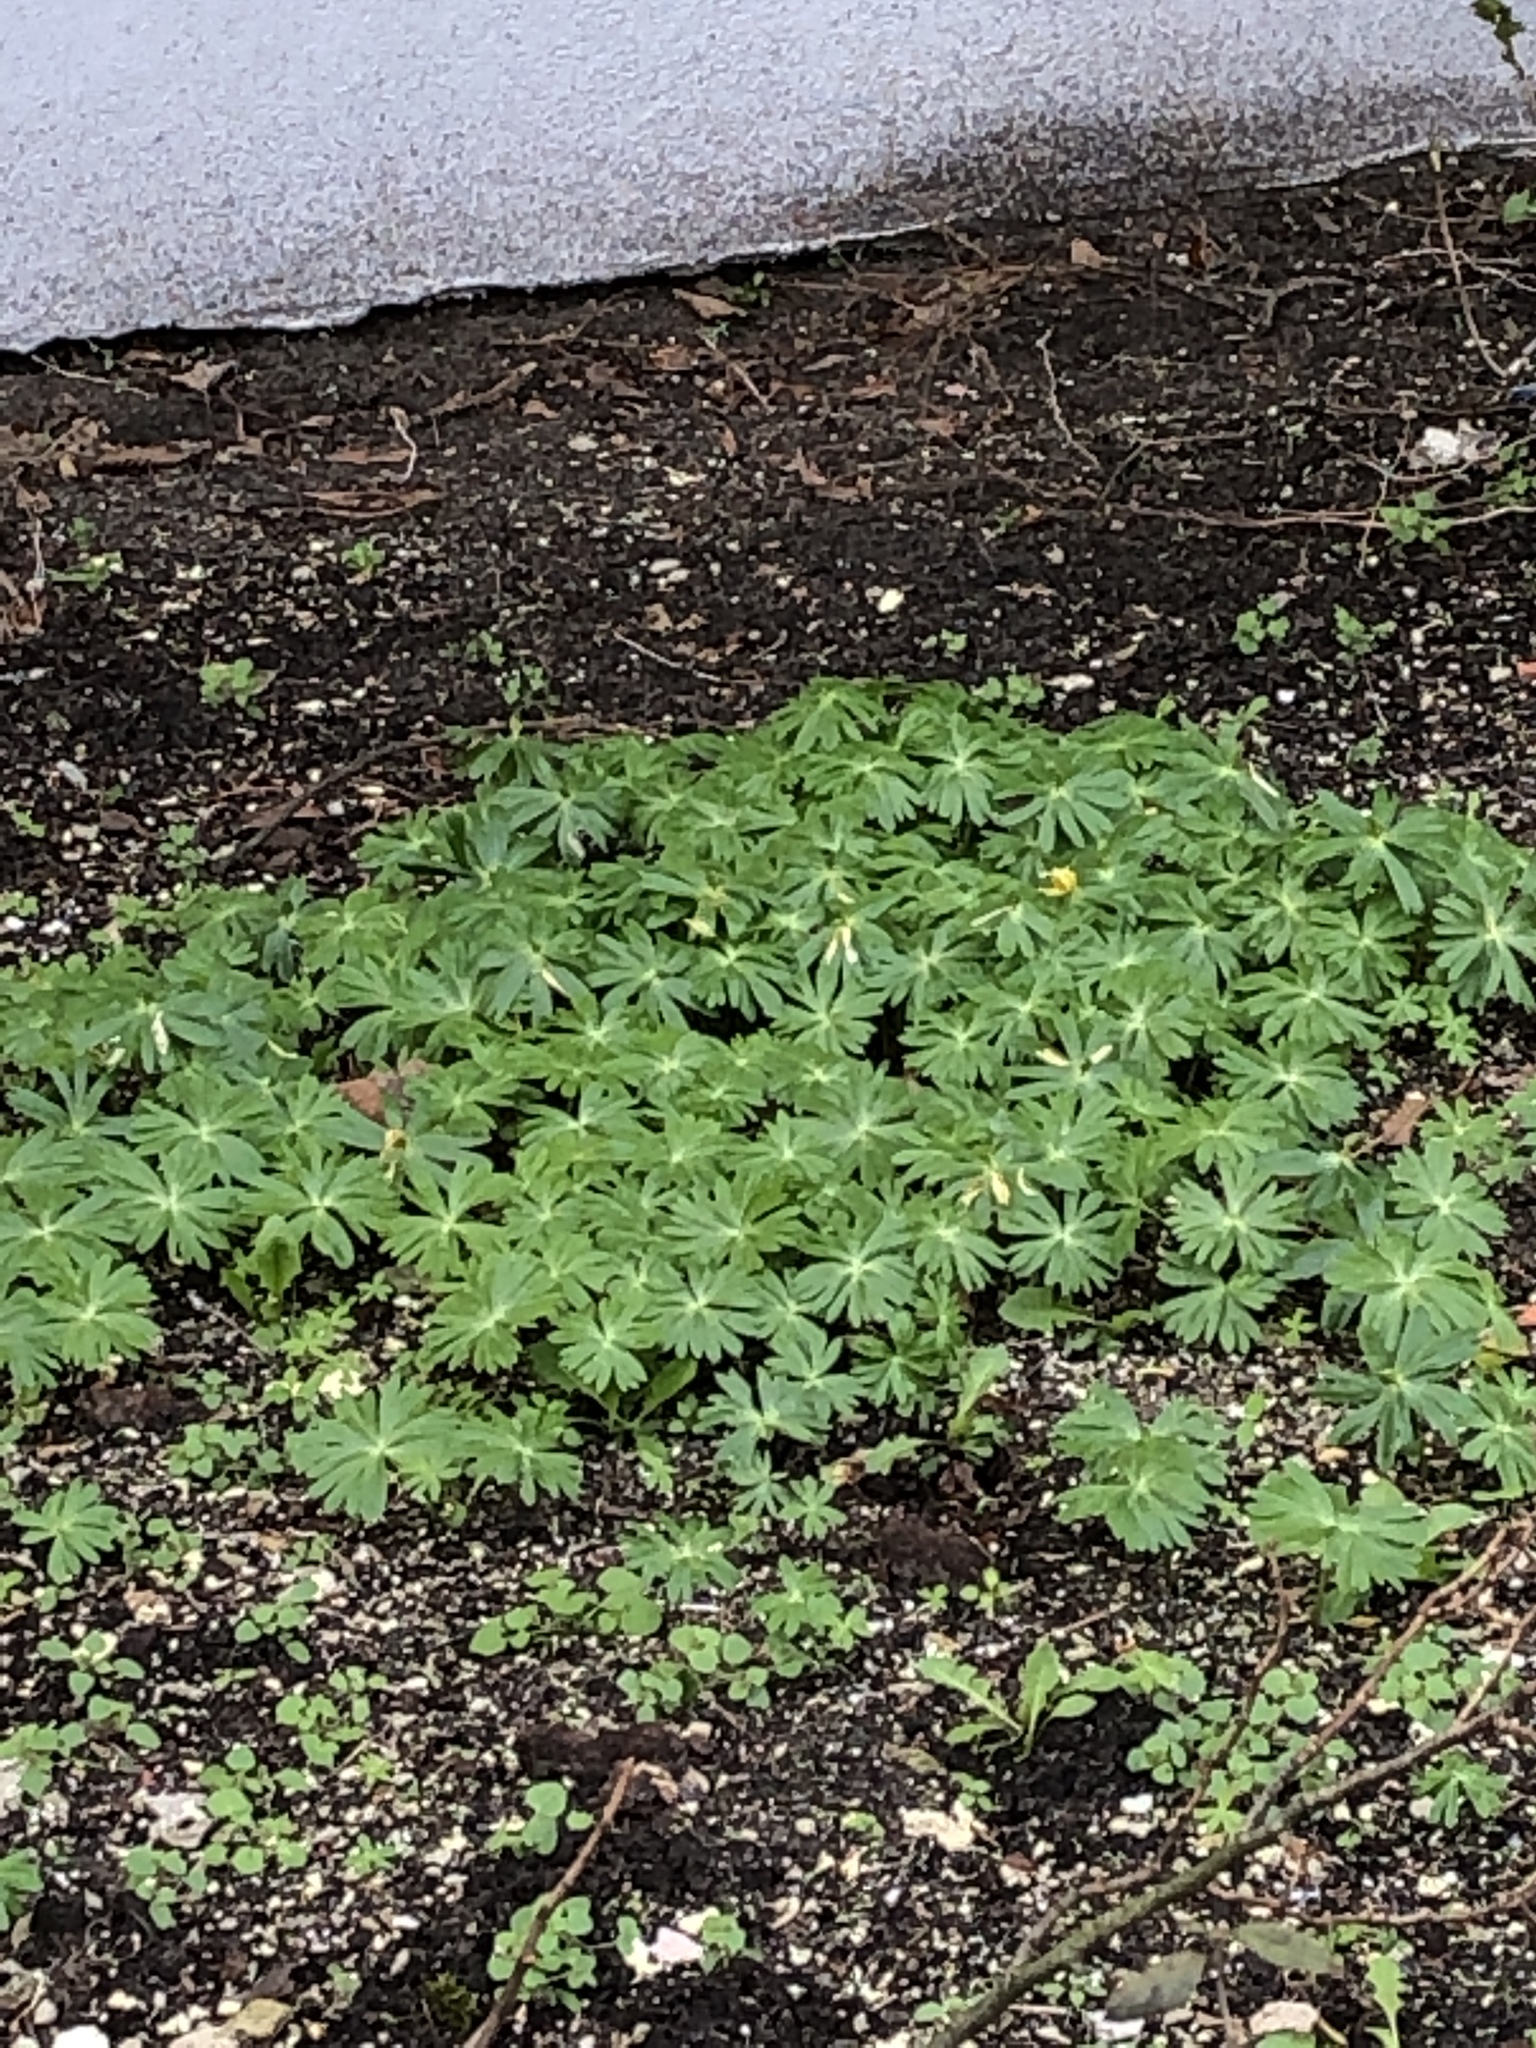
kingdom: Plantae
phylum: Tracheophyta
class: Magnoliopsida
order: Ranunculales
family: Ranunculaceae
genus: Eranthis
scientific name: Eranthis hyemalis
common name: Winter aconite
